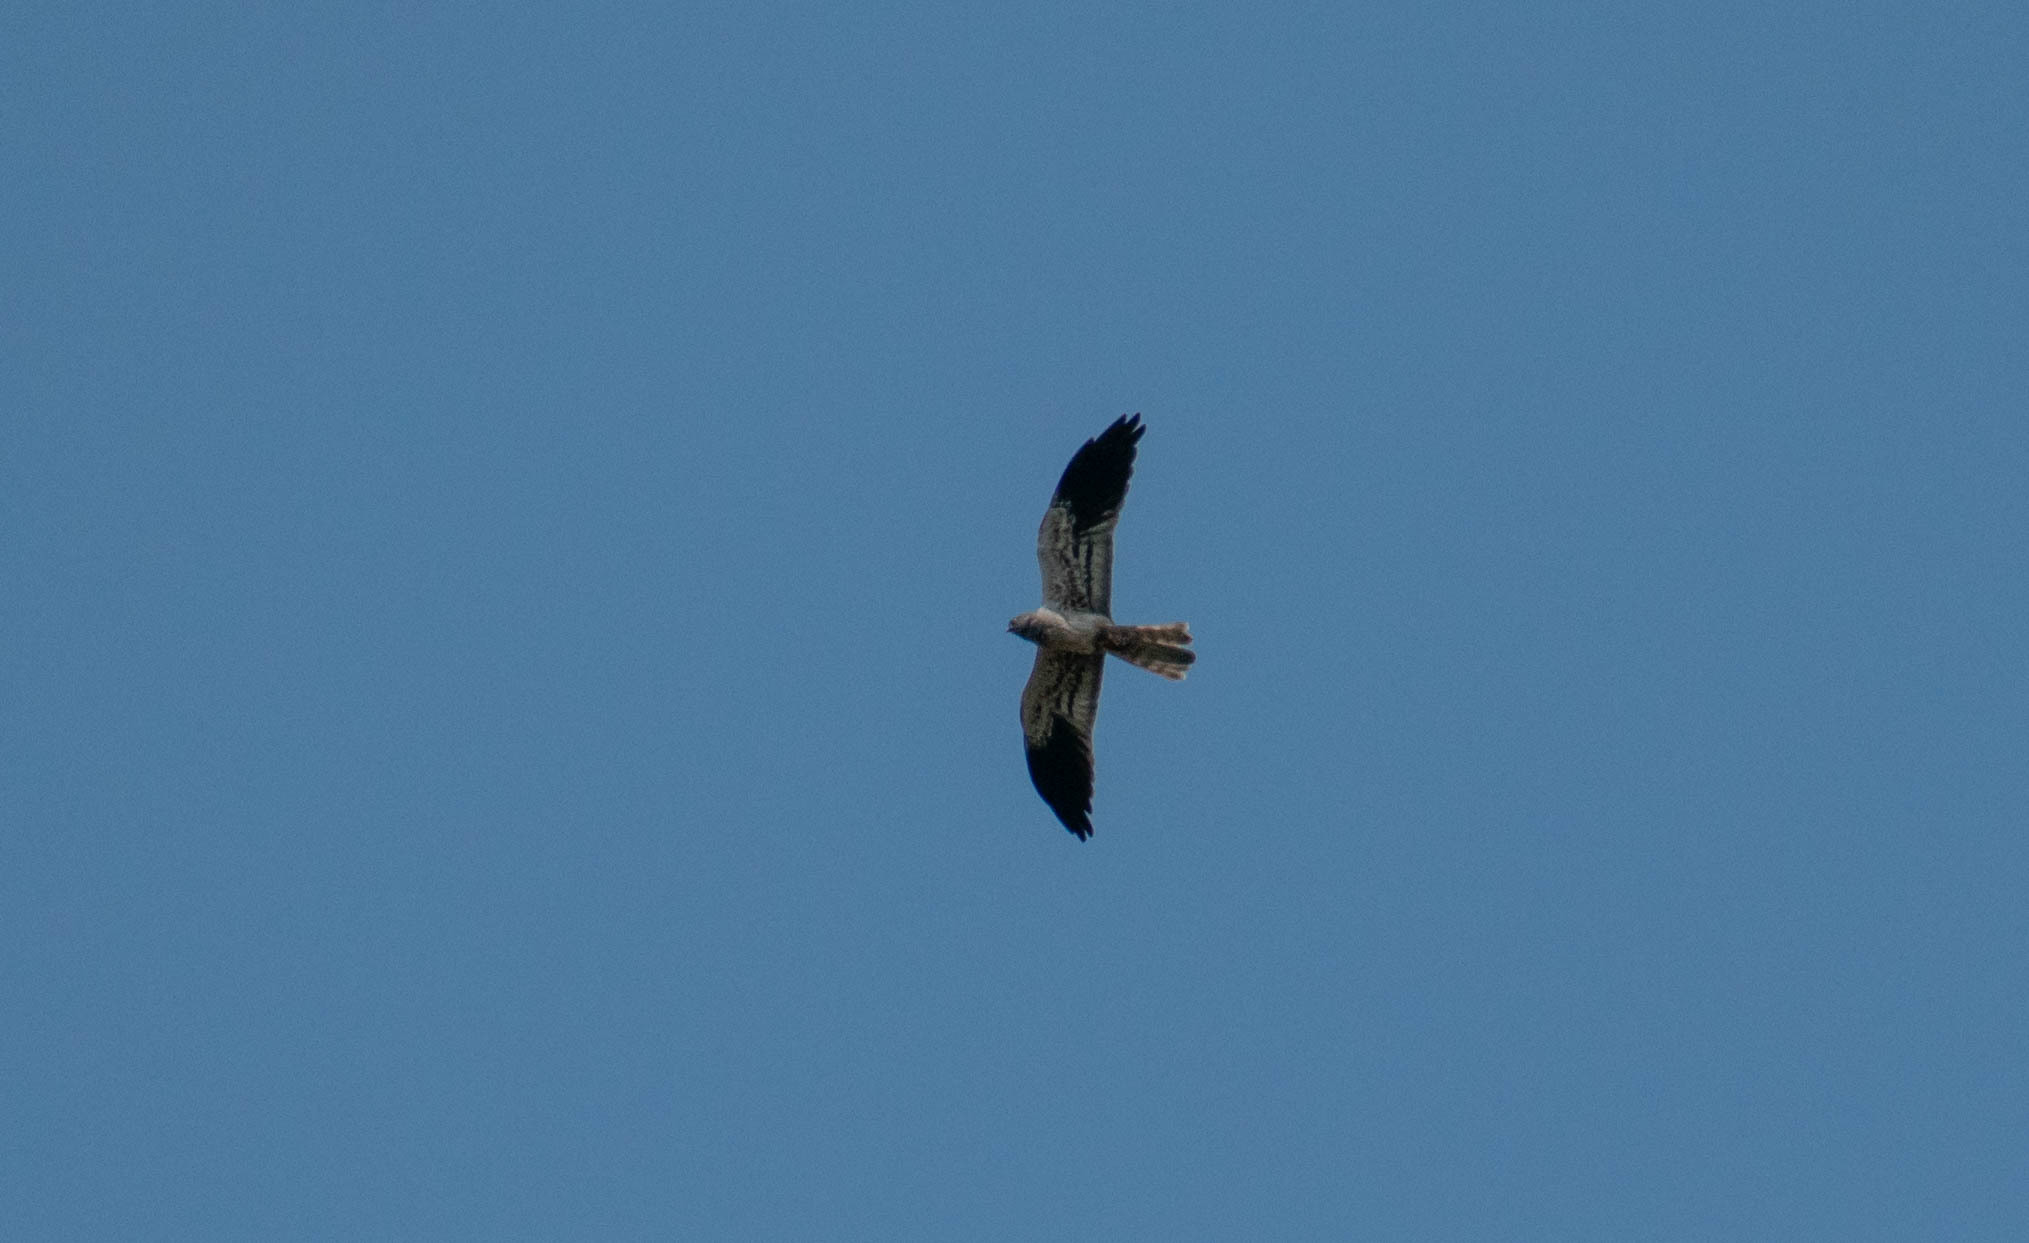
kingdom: Animalia
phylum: Chordata
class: Aves
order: Accipitriformes
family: Accipitridae
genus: Circus
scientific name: Circus pygargus
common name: Montagu's harrier
